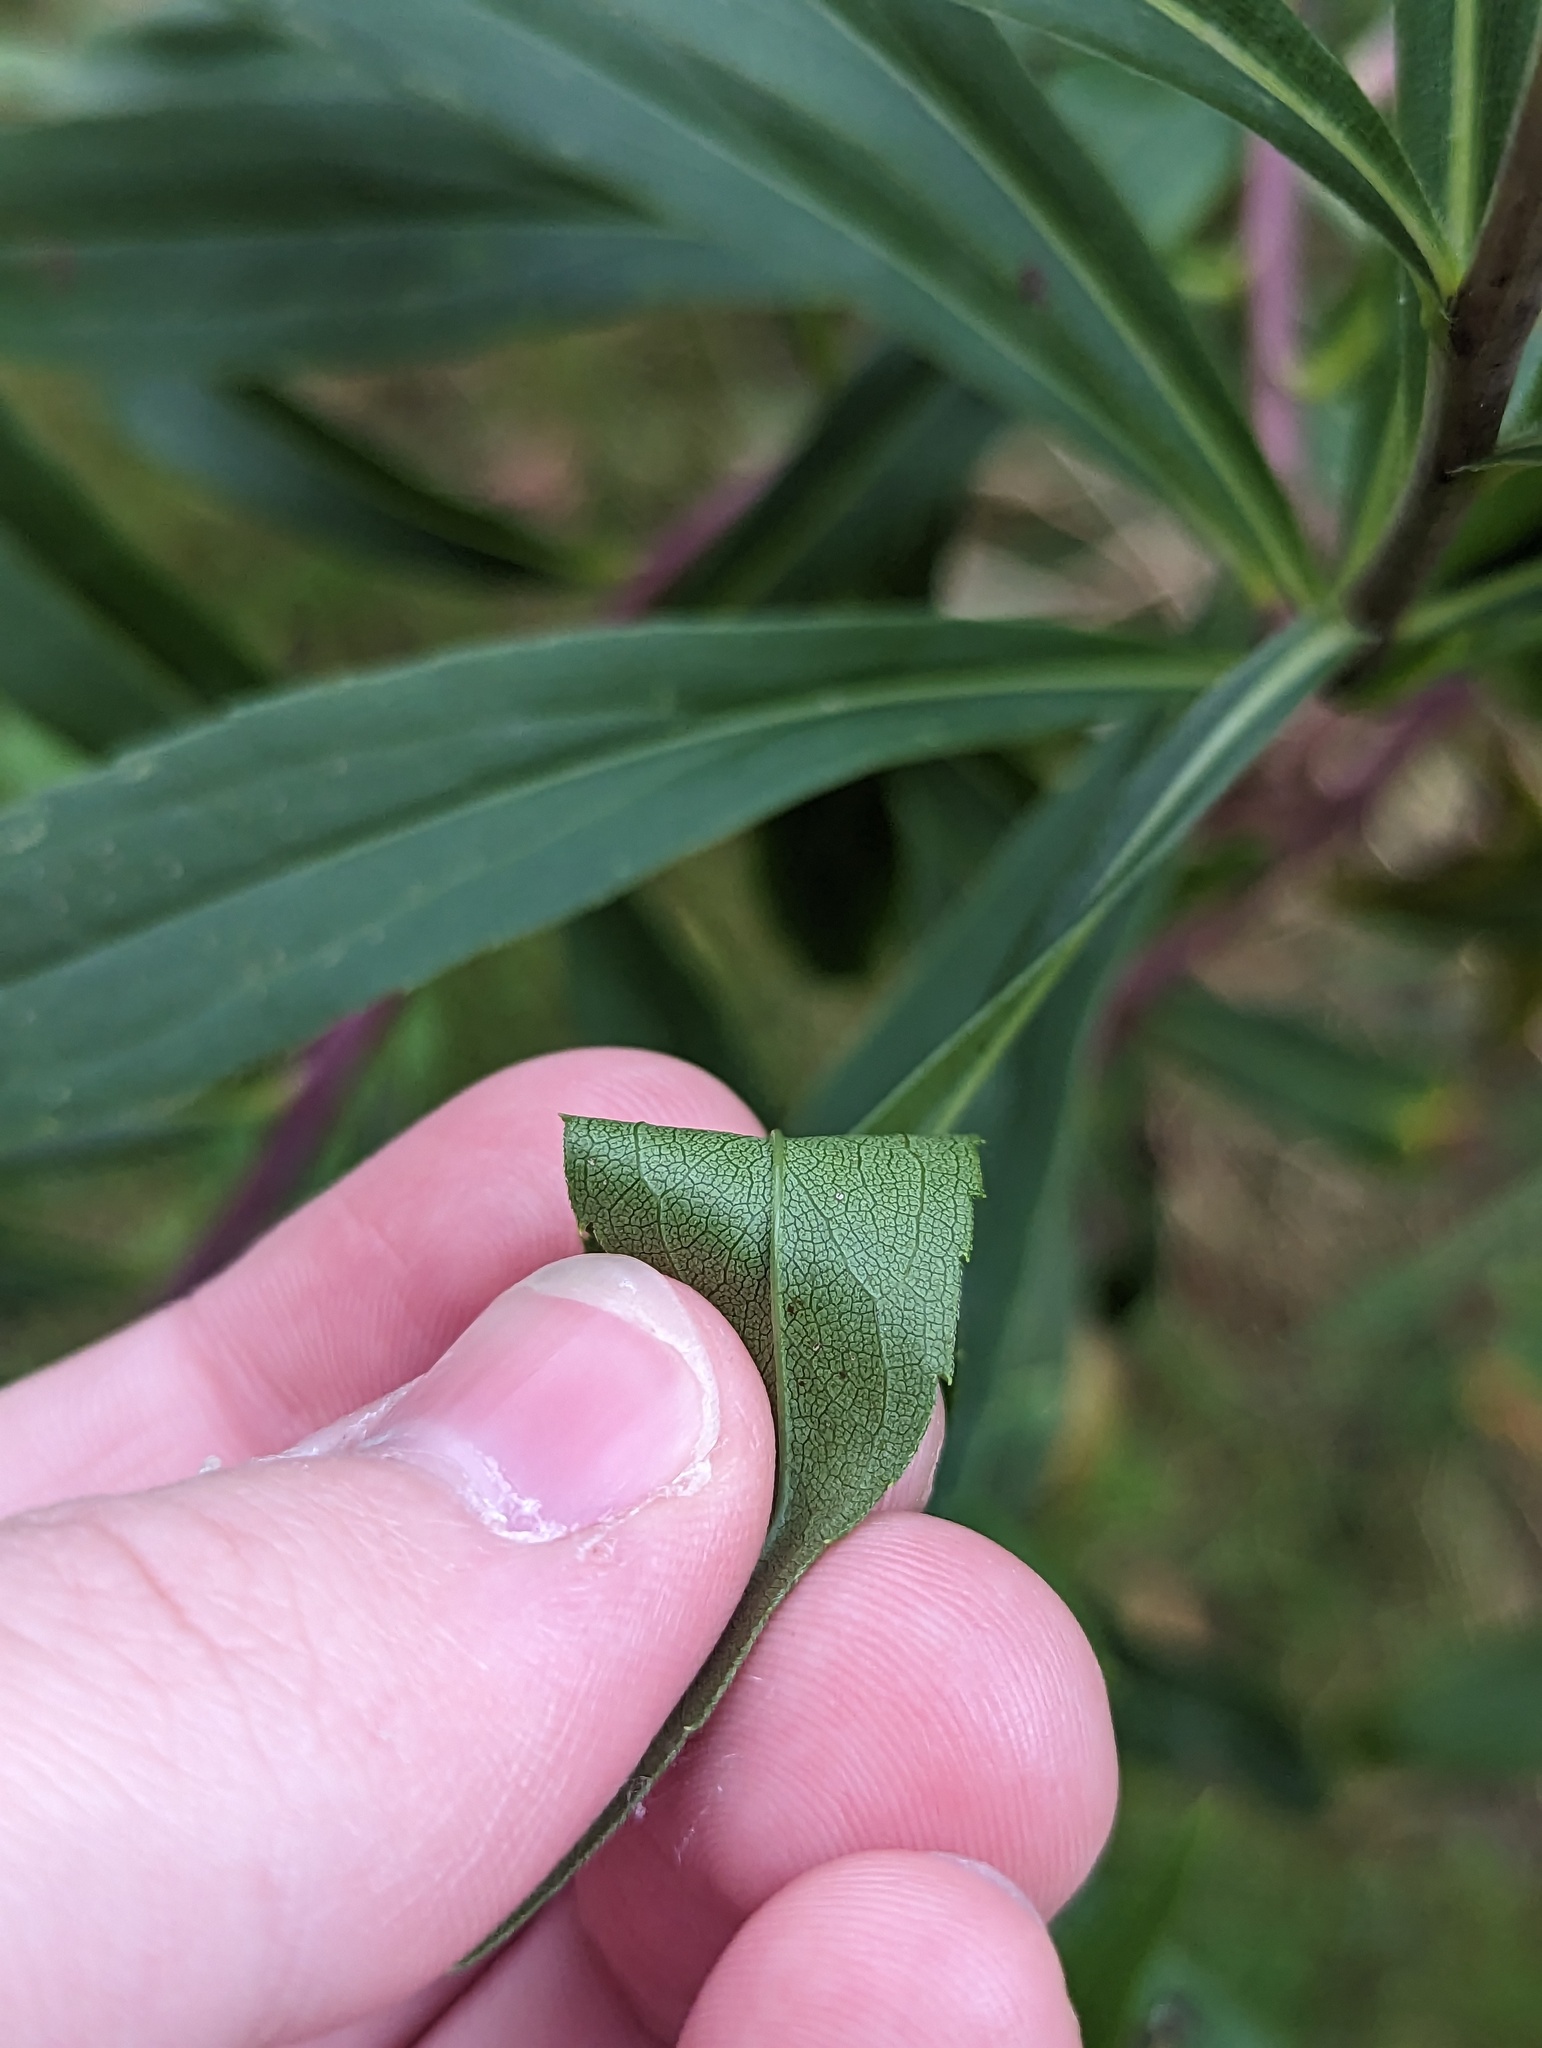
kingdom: Plantae
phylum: Tracheophyta
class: Magnoliopsida
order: Asterales
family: Asteraceae
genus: Solidago
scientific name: Solidago gigantea
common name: Giant goldenrod
